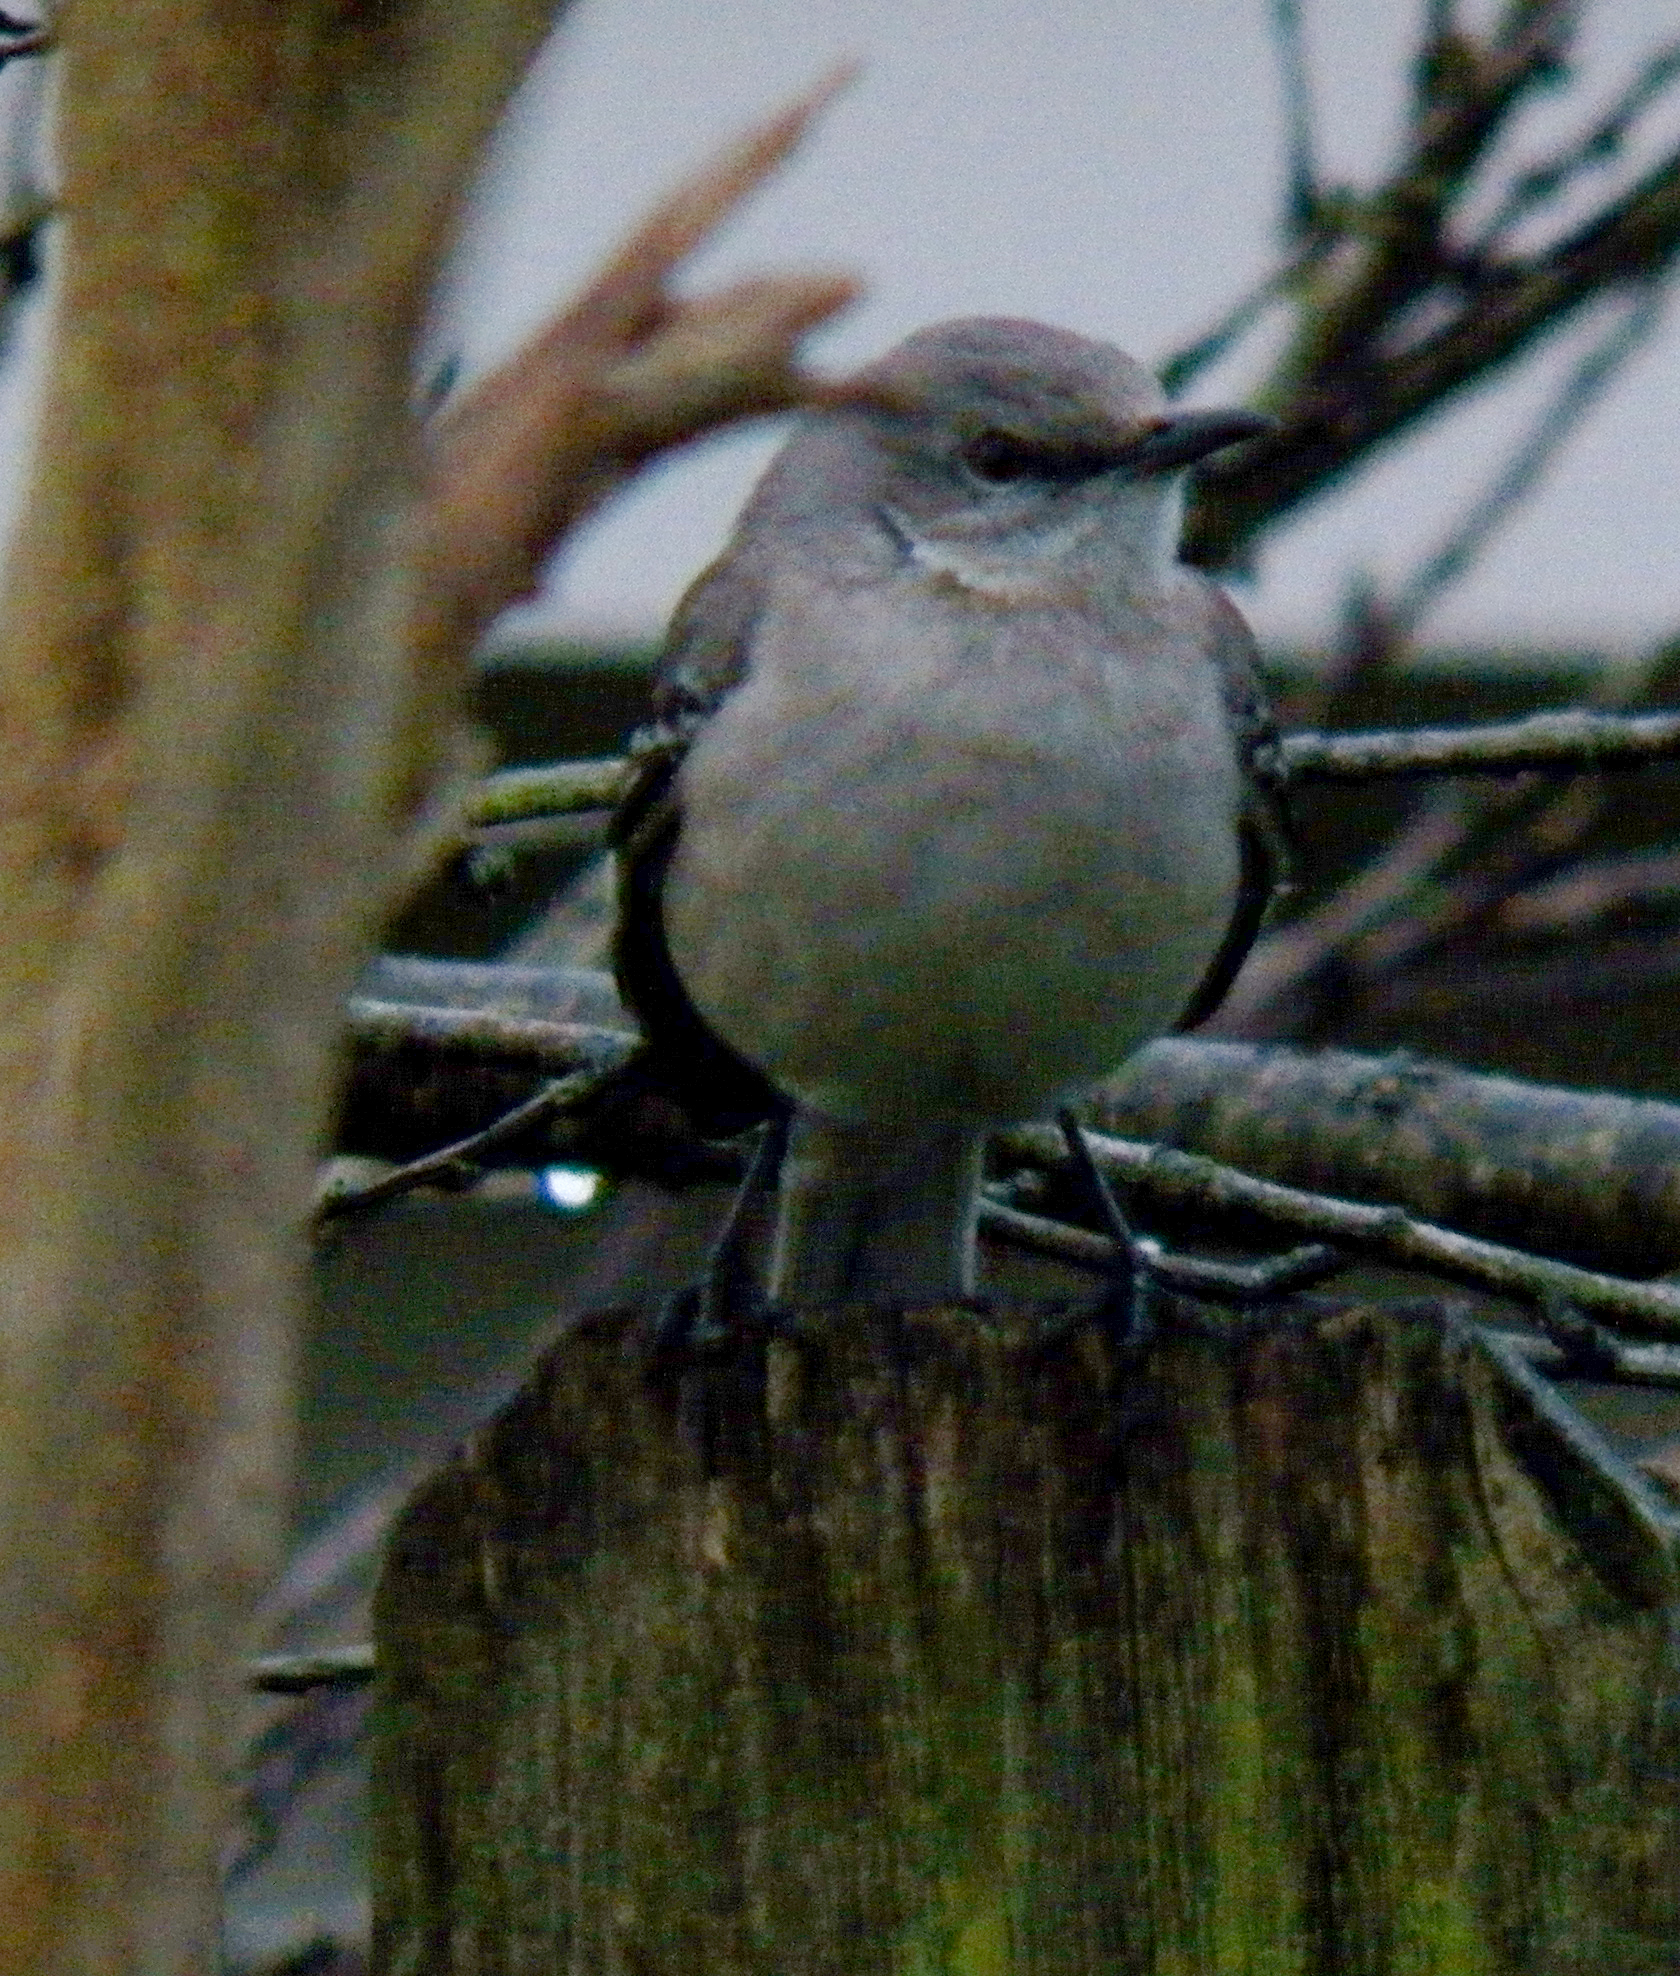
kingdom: Animalia
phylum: Chordata
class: Aves
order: Passeriformes
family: Mimidae
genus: Mimus
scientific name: Mimus polyglottos
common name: Northern mockingbird
